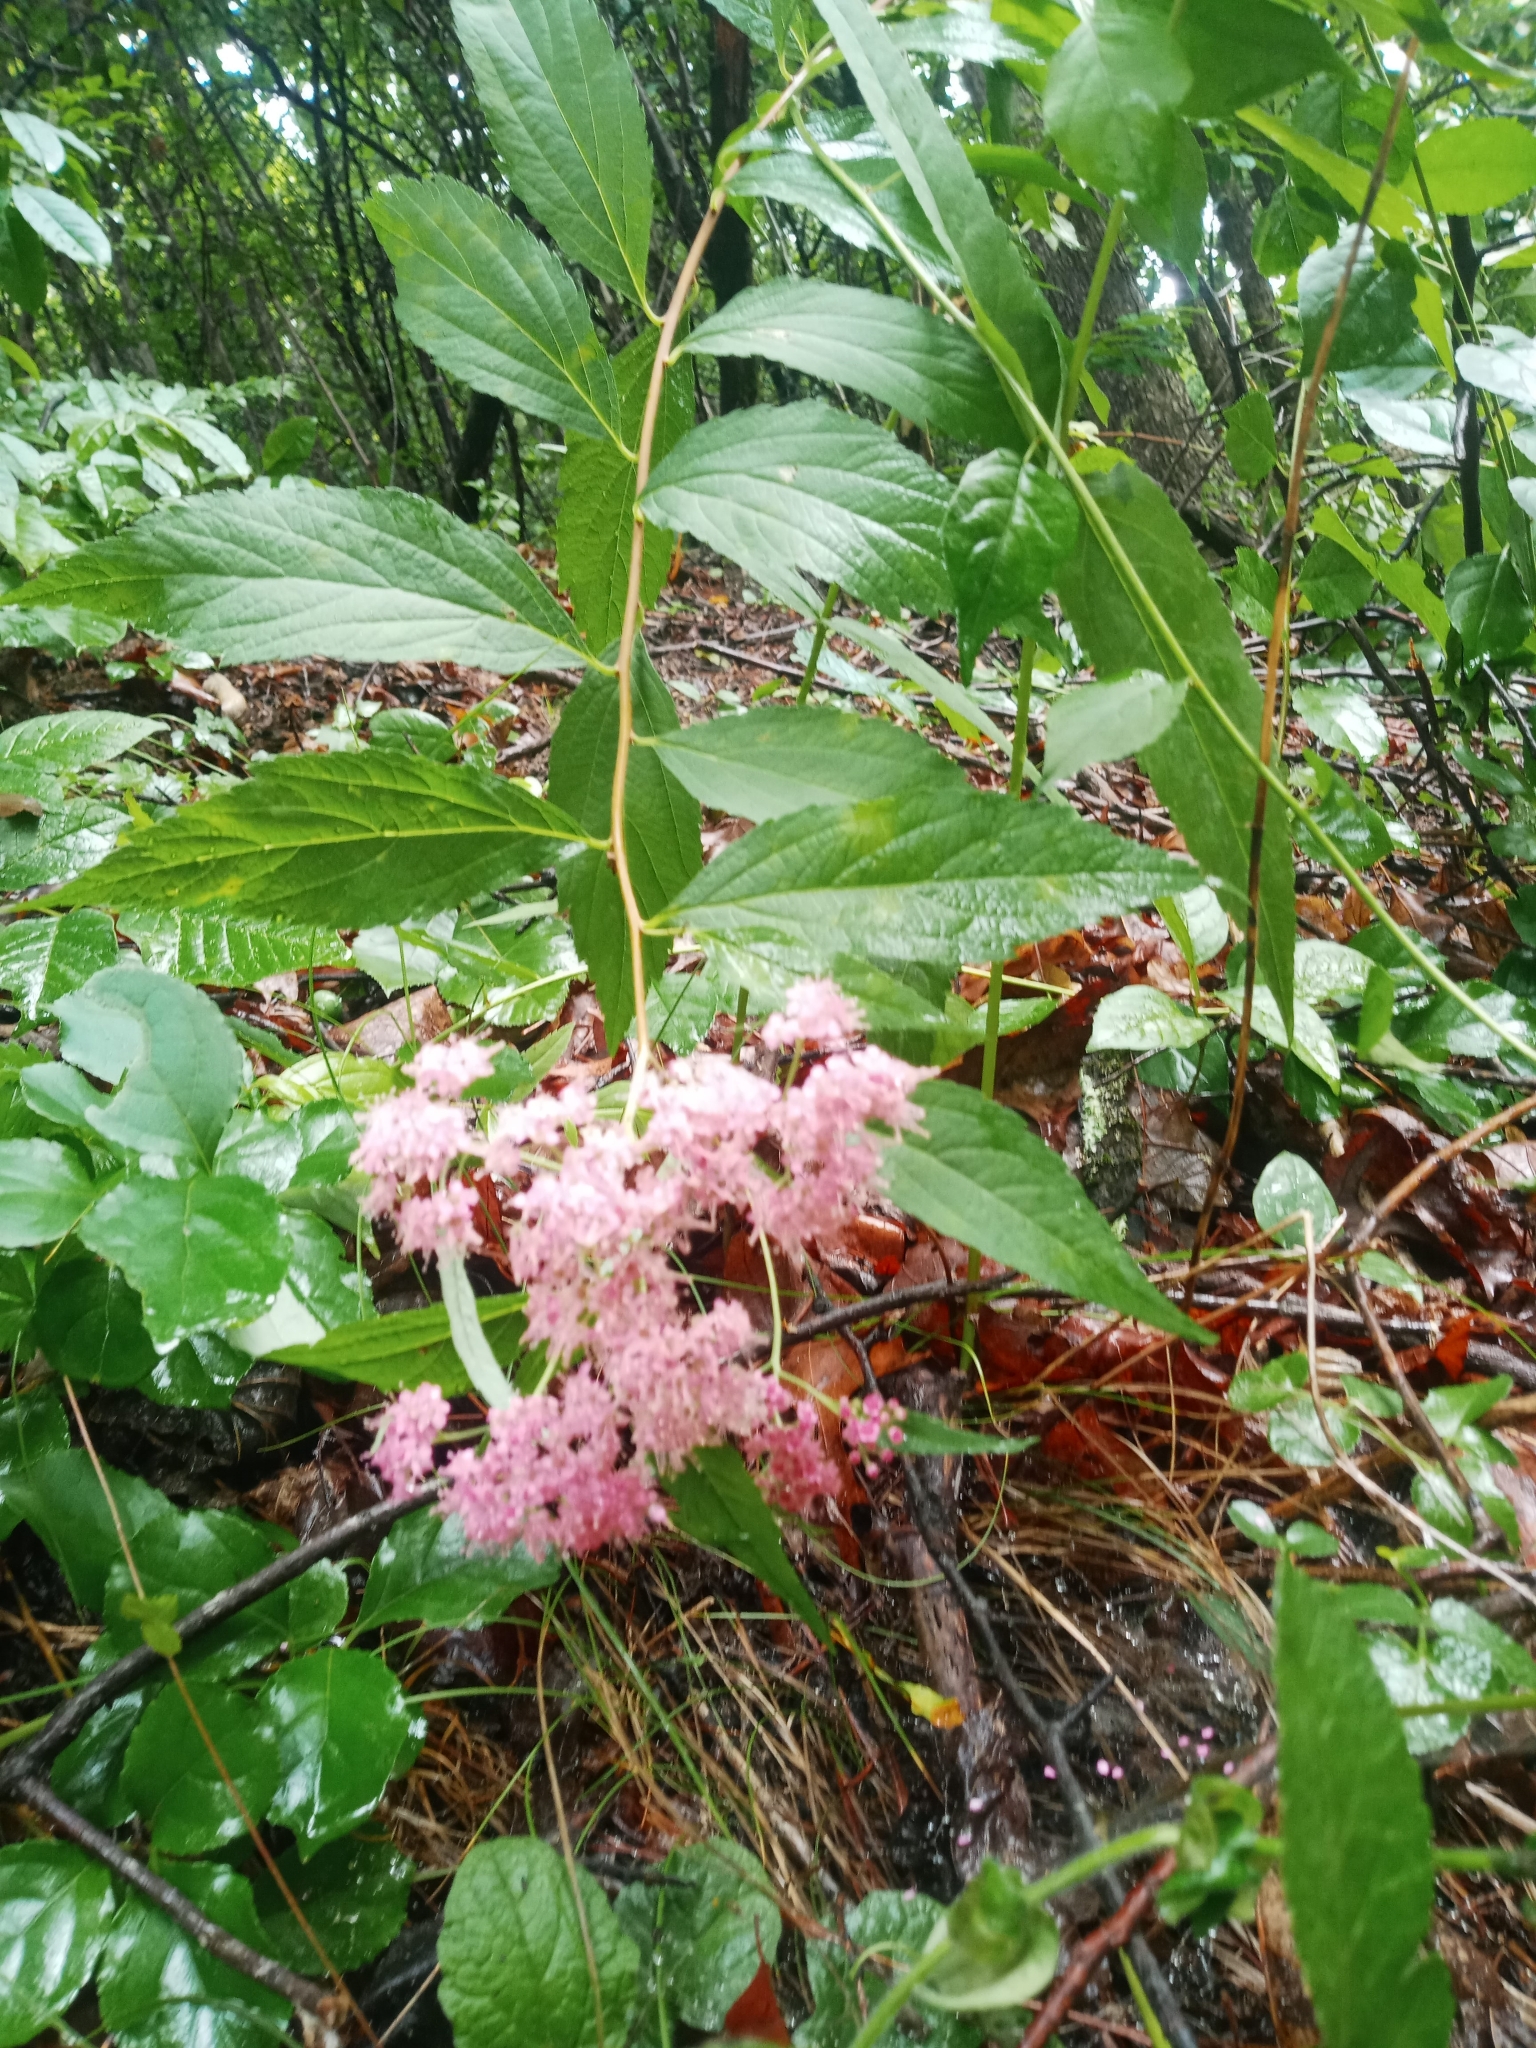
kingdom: Plantae
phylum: Tracheophyta
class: Magnoliopsida
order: Rosales
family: Rosaceae
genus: Spiraea
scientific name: Spiraea japonica
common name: Japanese spiraea
